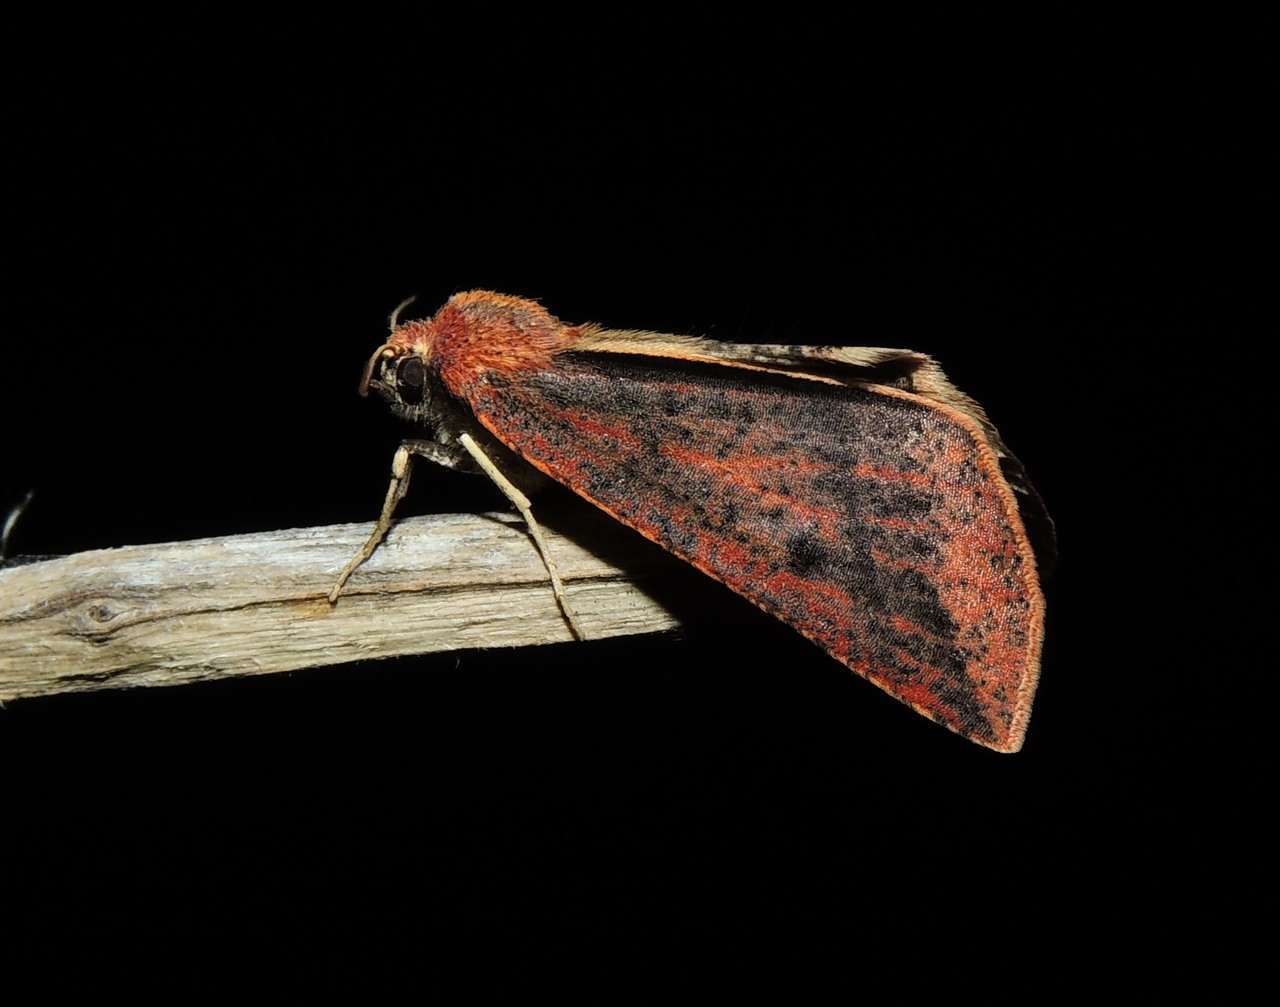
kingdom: Animalia
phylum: Arthropoda
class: Insecta
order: Lepidoptera
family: Geometridae
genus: Cycloprorodes
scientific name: Cycloprorodes melanoxysta
